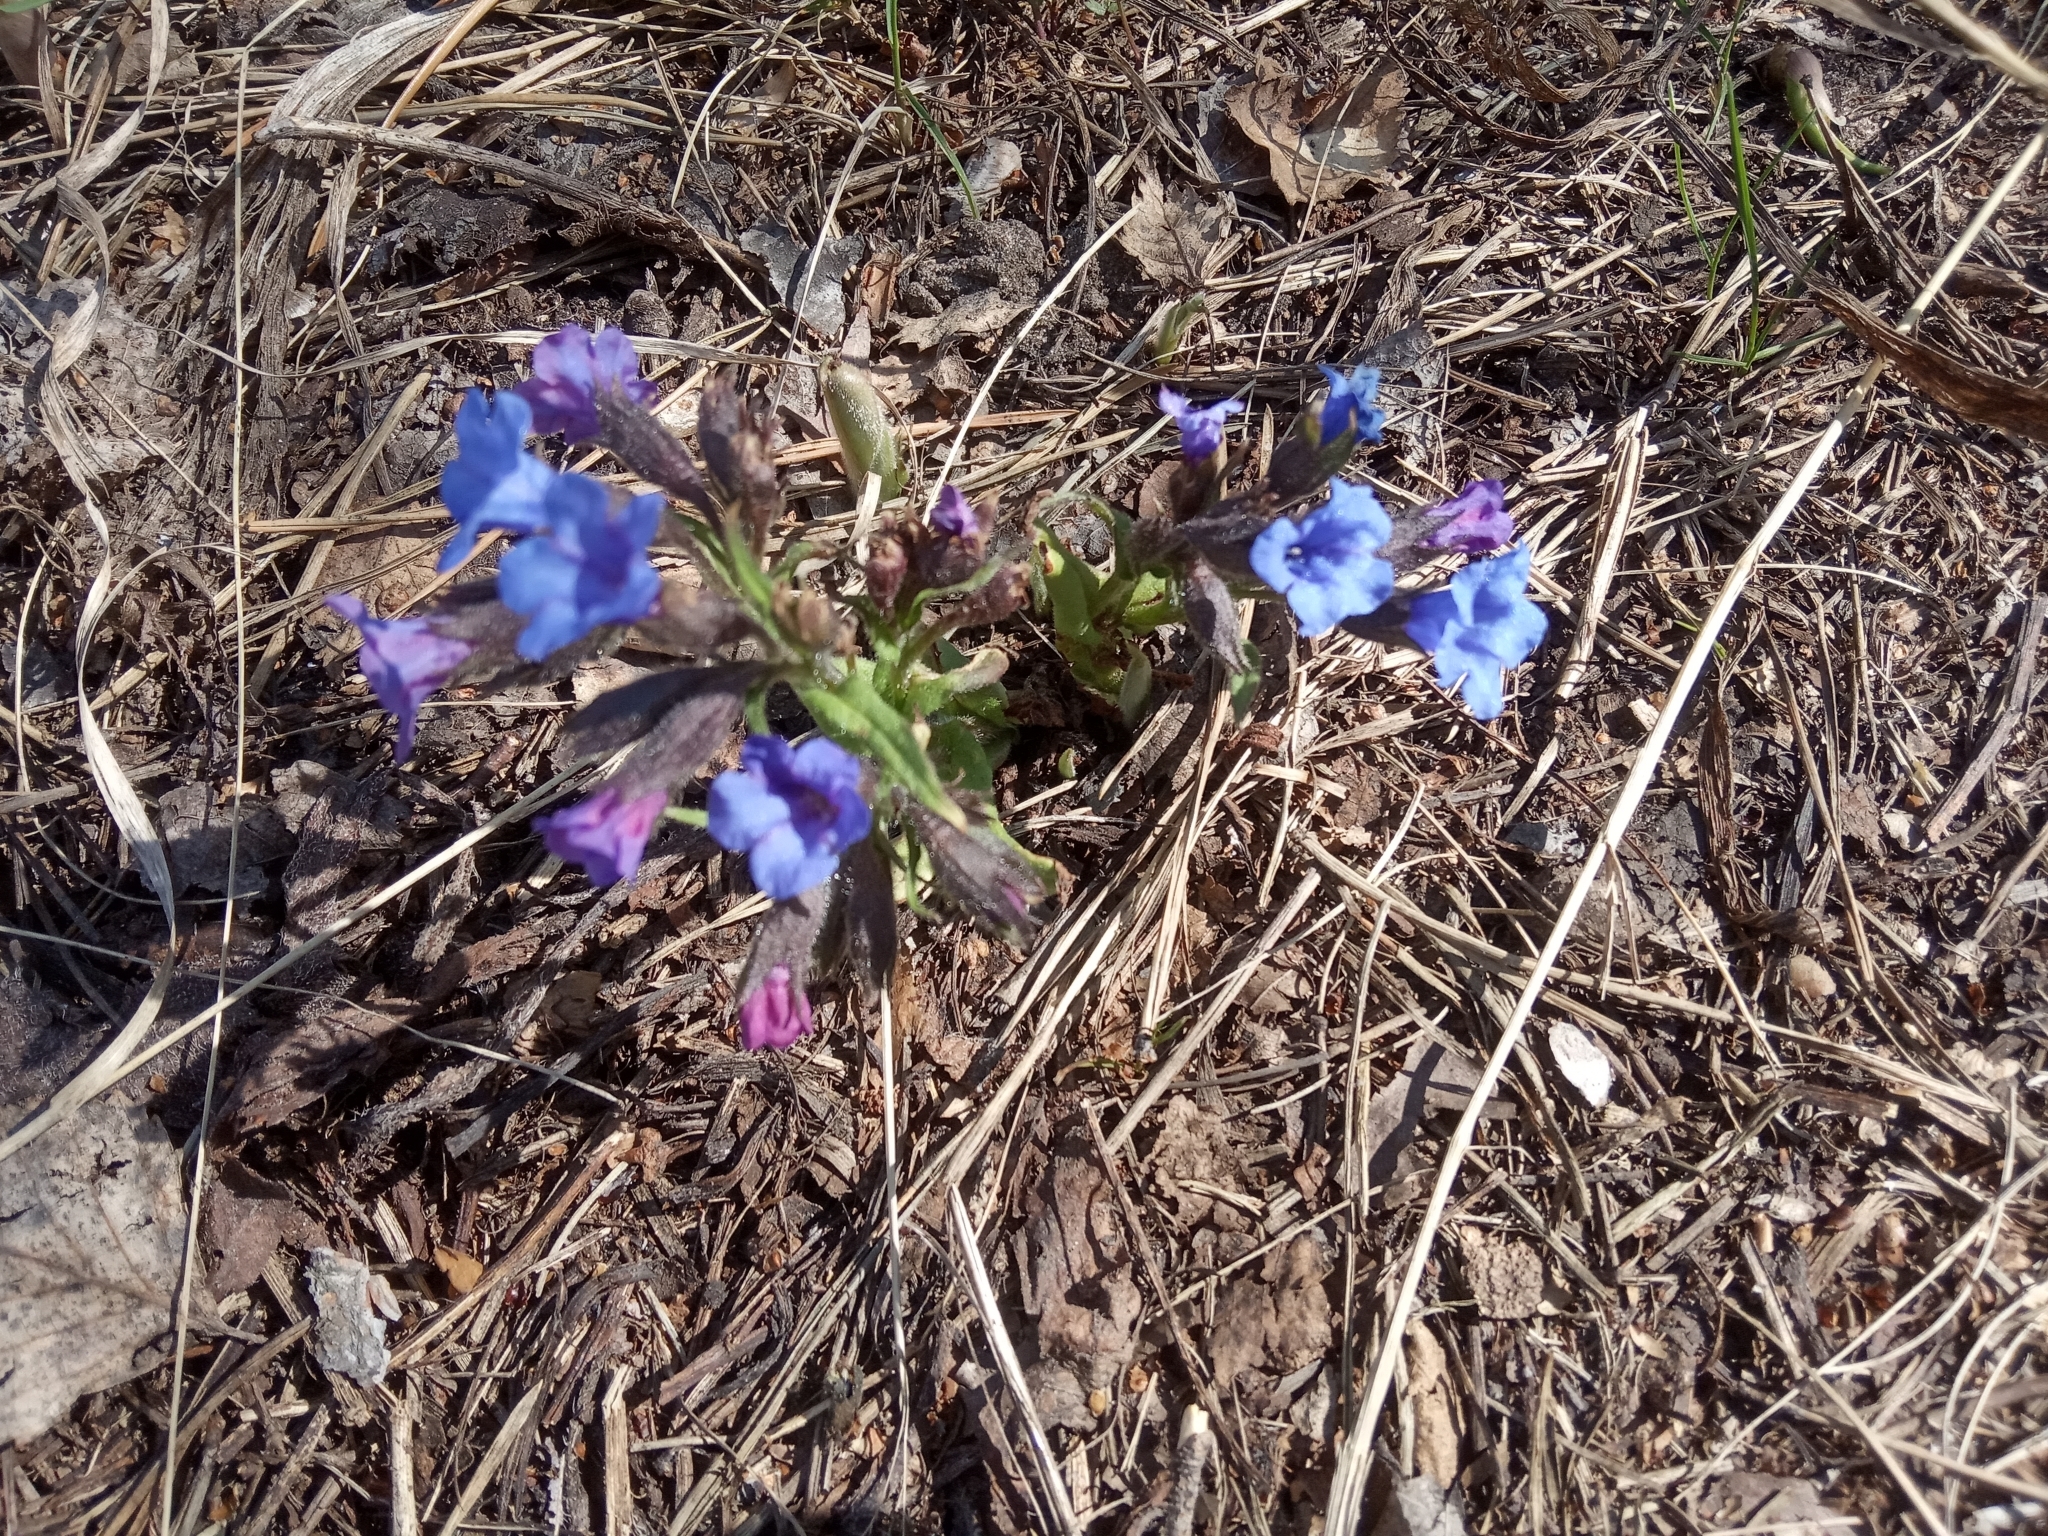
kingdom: Plantae
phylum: Tracheophyta
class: Magnoliopsida
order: Boraginales
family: Boraginaceae
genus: Pulmonaria
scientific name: Pulmonaria angustifolia
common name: Blue cowslip
